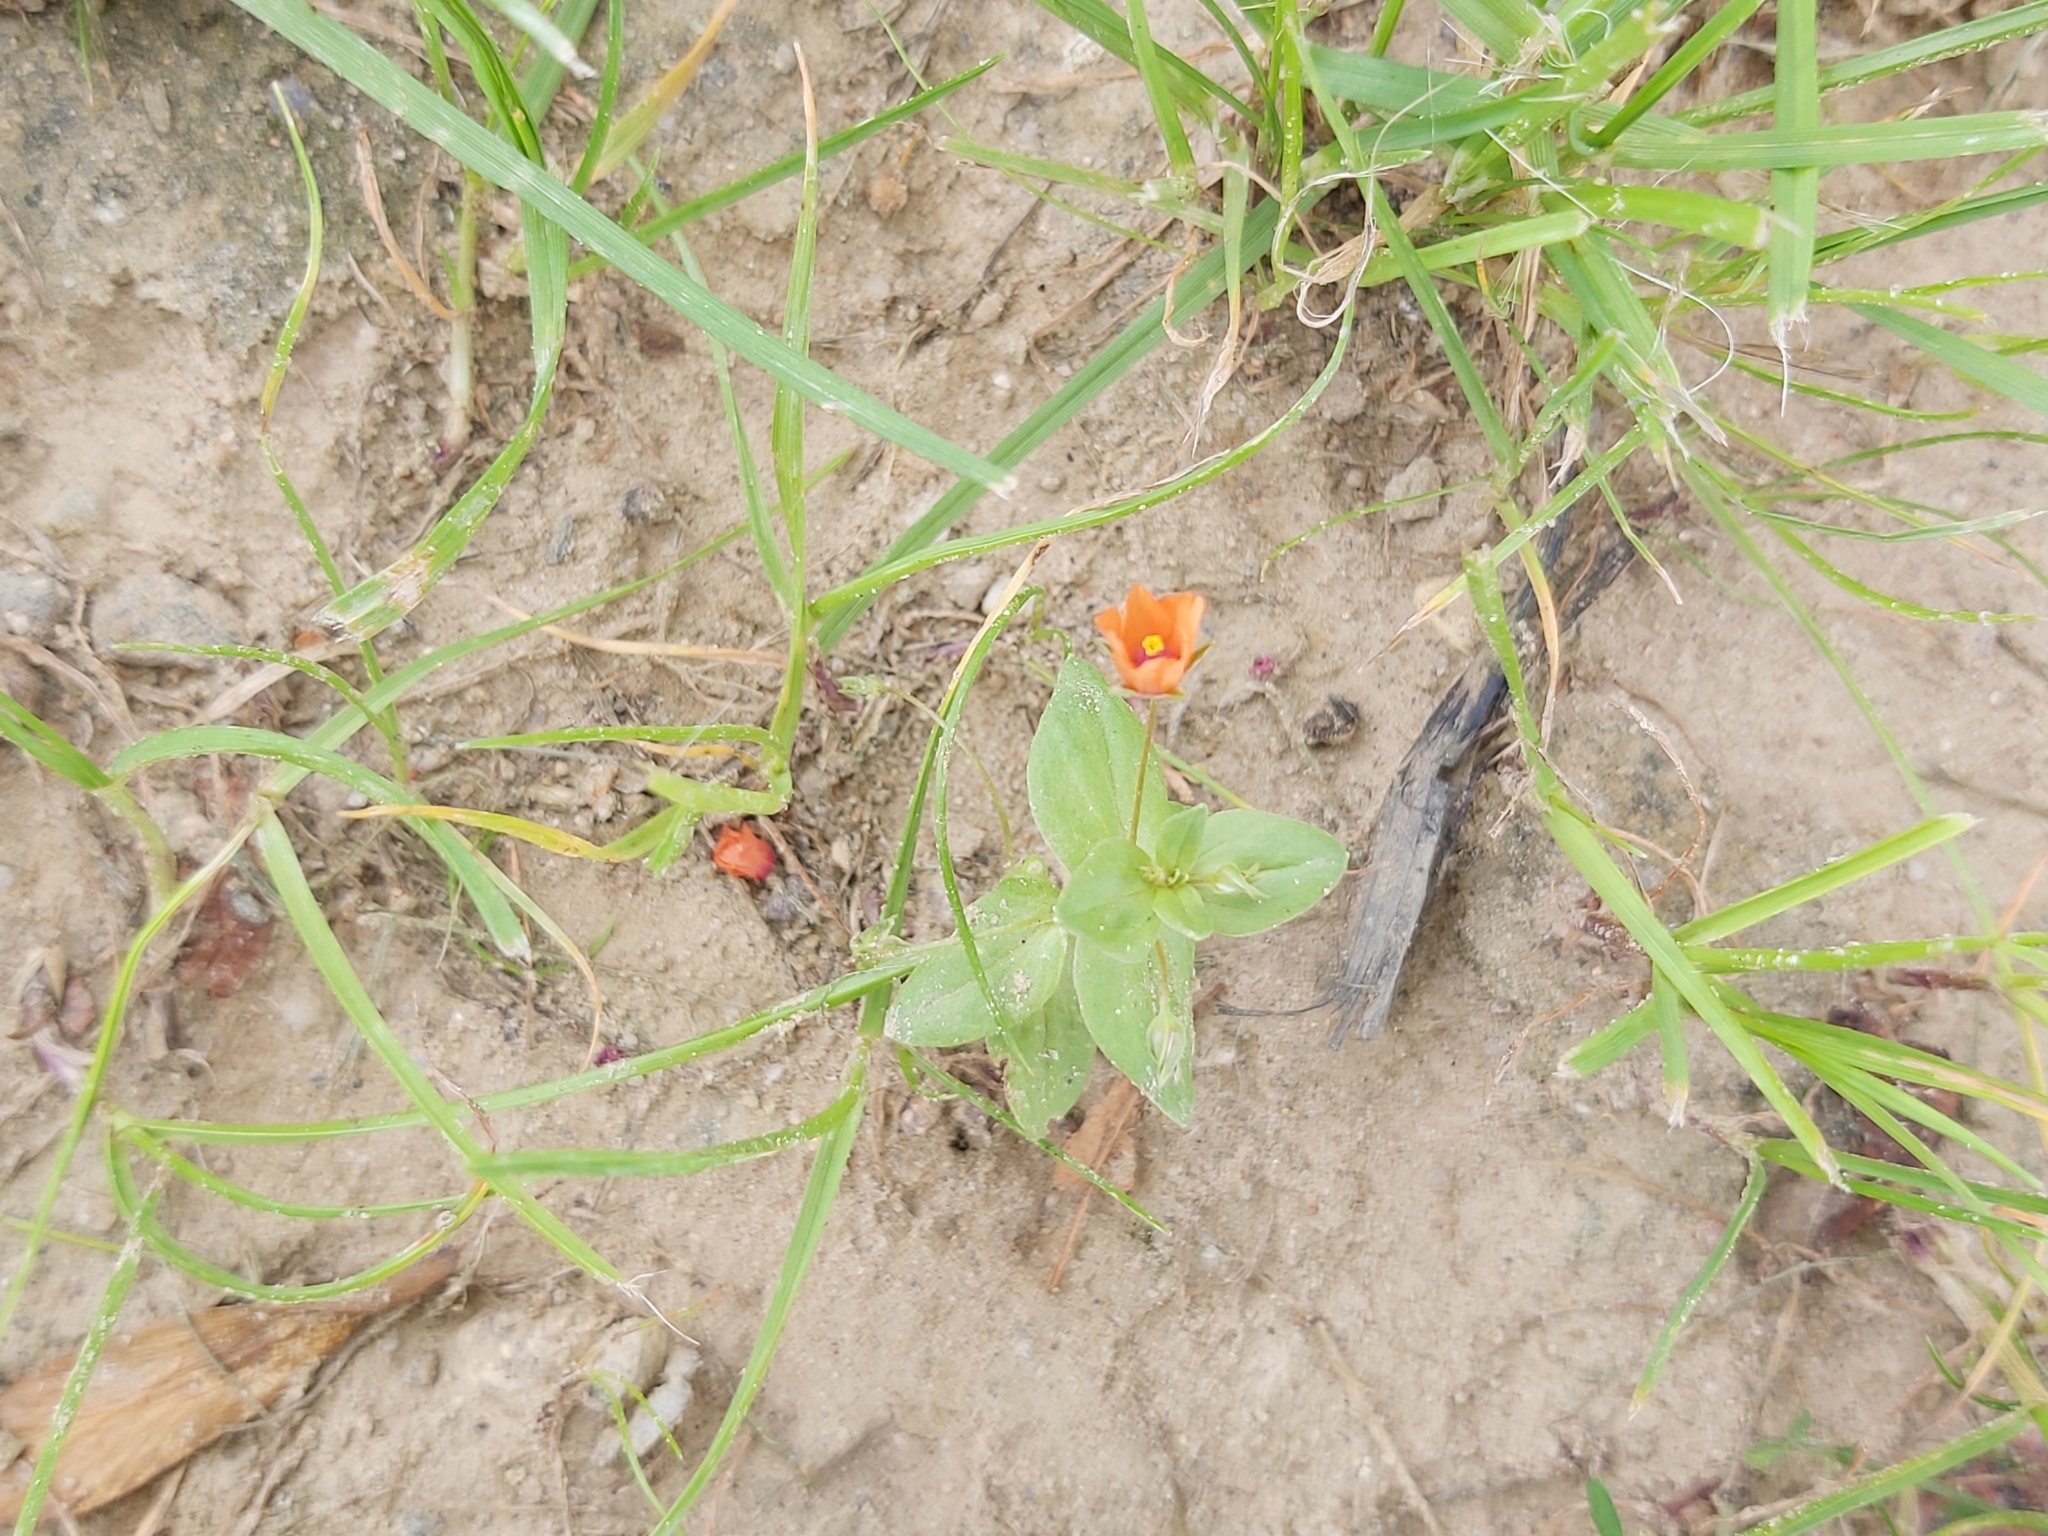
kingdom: Plantae
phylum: Tracheophyta
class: Magnoliopsida
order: Ericales
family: Primulaceae
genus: Lysimachia
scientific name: Lysimachia arvensis
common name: Scarlet pimpernel
